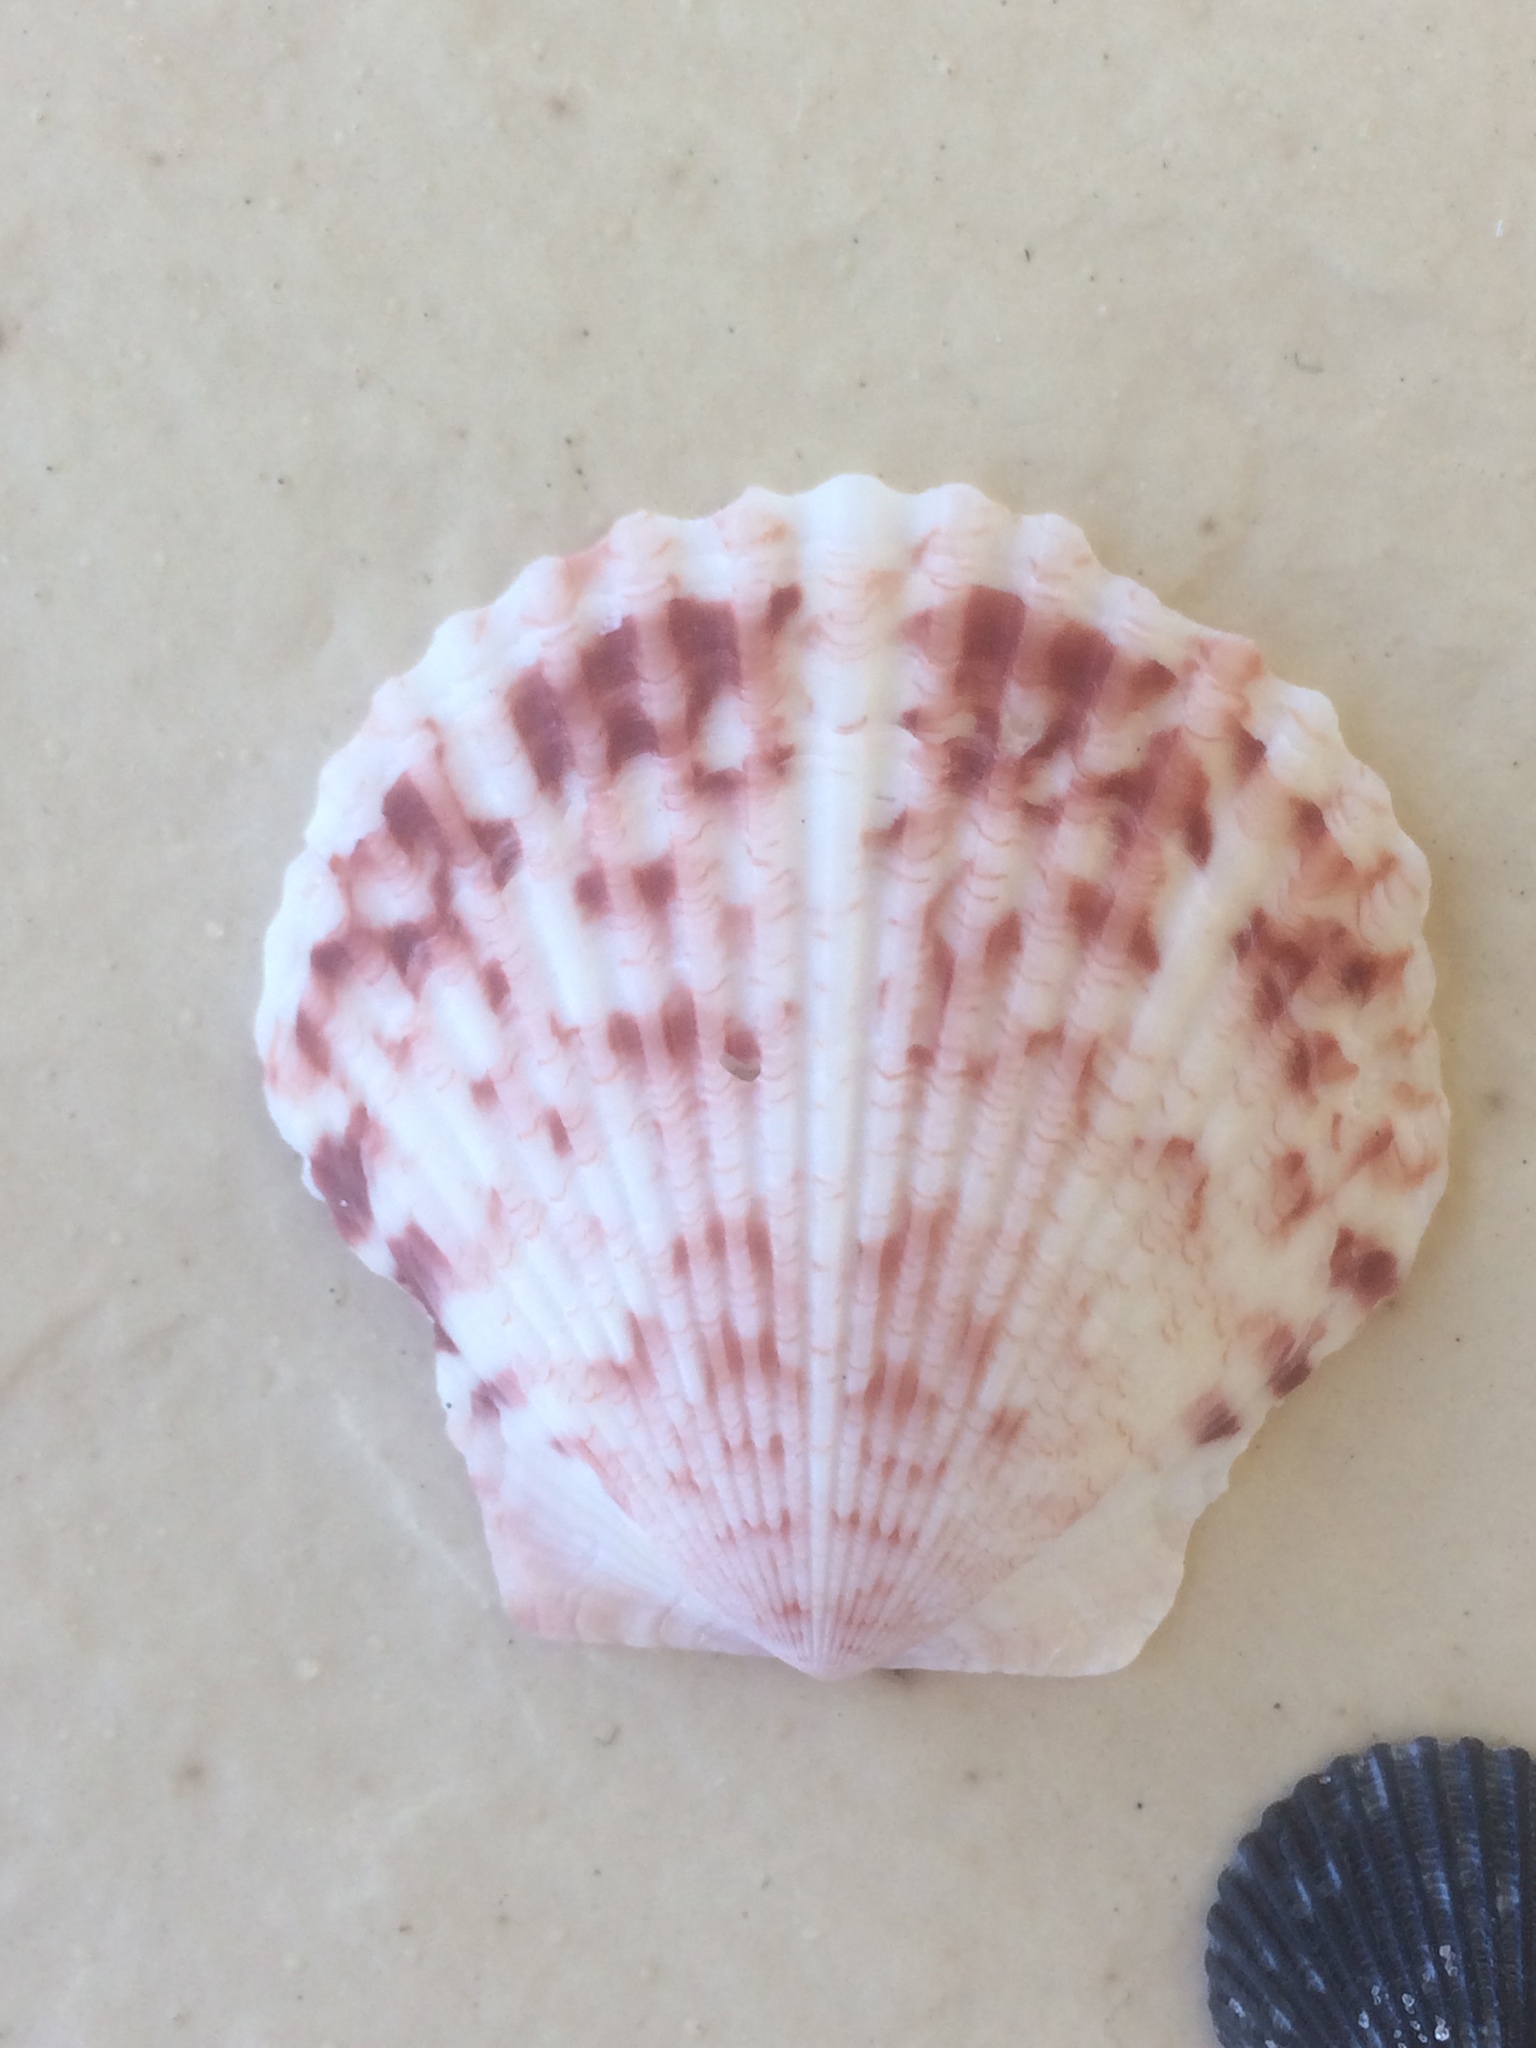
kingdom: Animalia
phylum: Mollusca
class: Bivalvia
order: Pectinida
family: Pectinidae
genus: Argopecten
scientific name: Argopecten gibbus
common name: Atlantic calico scallop
